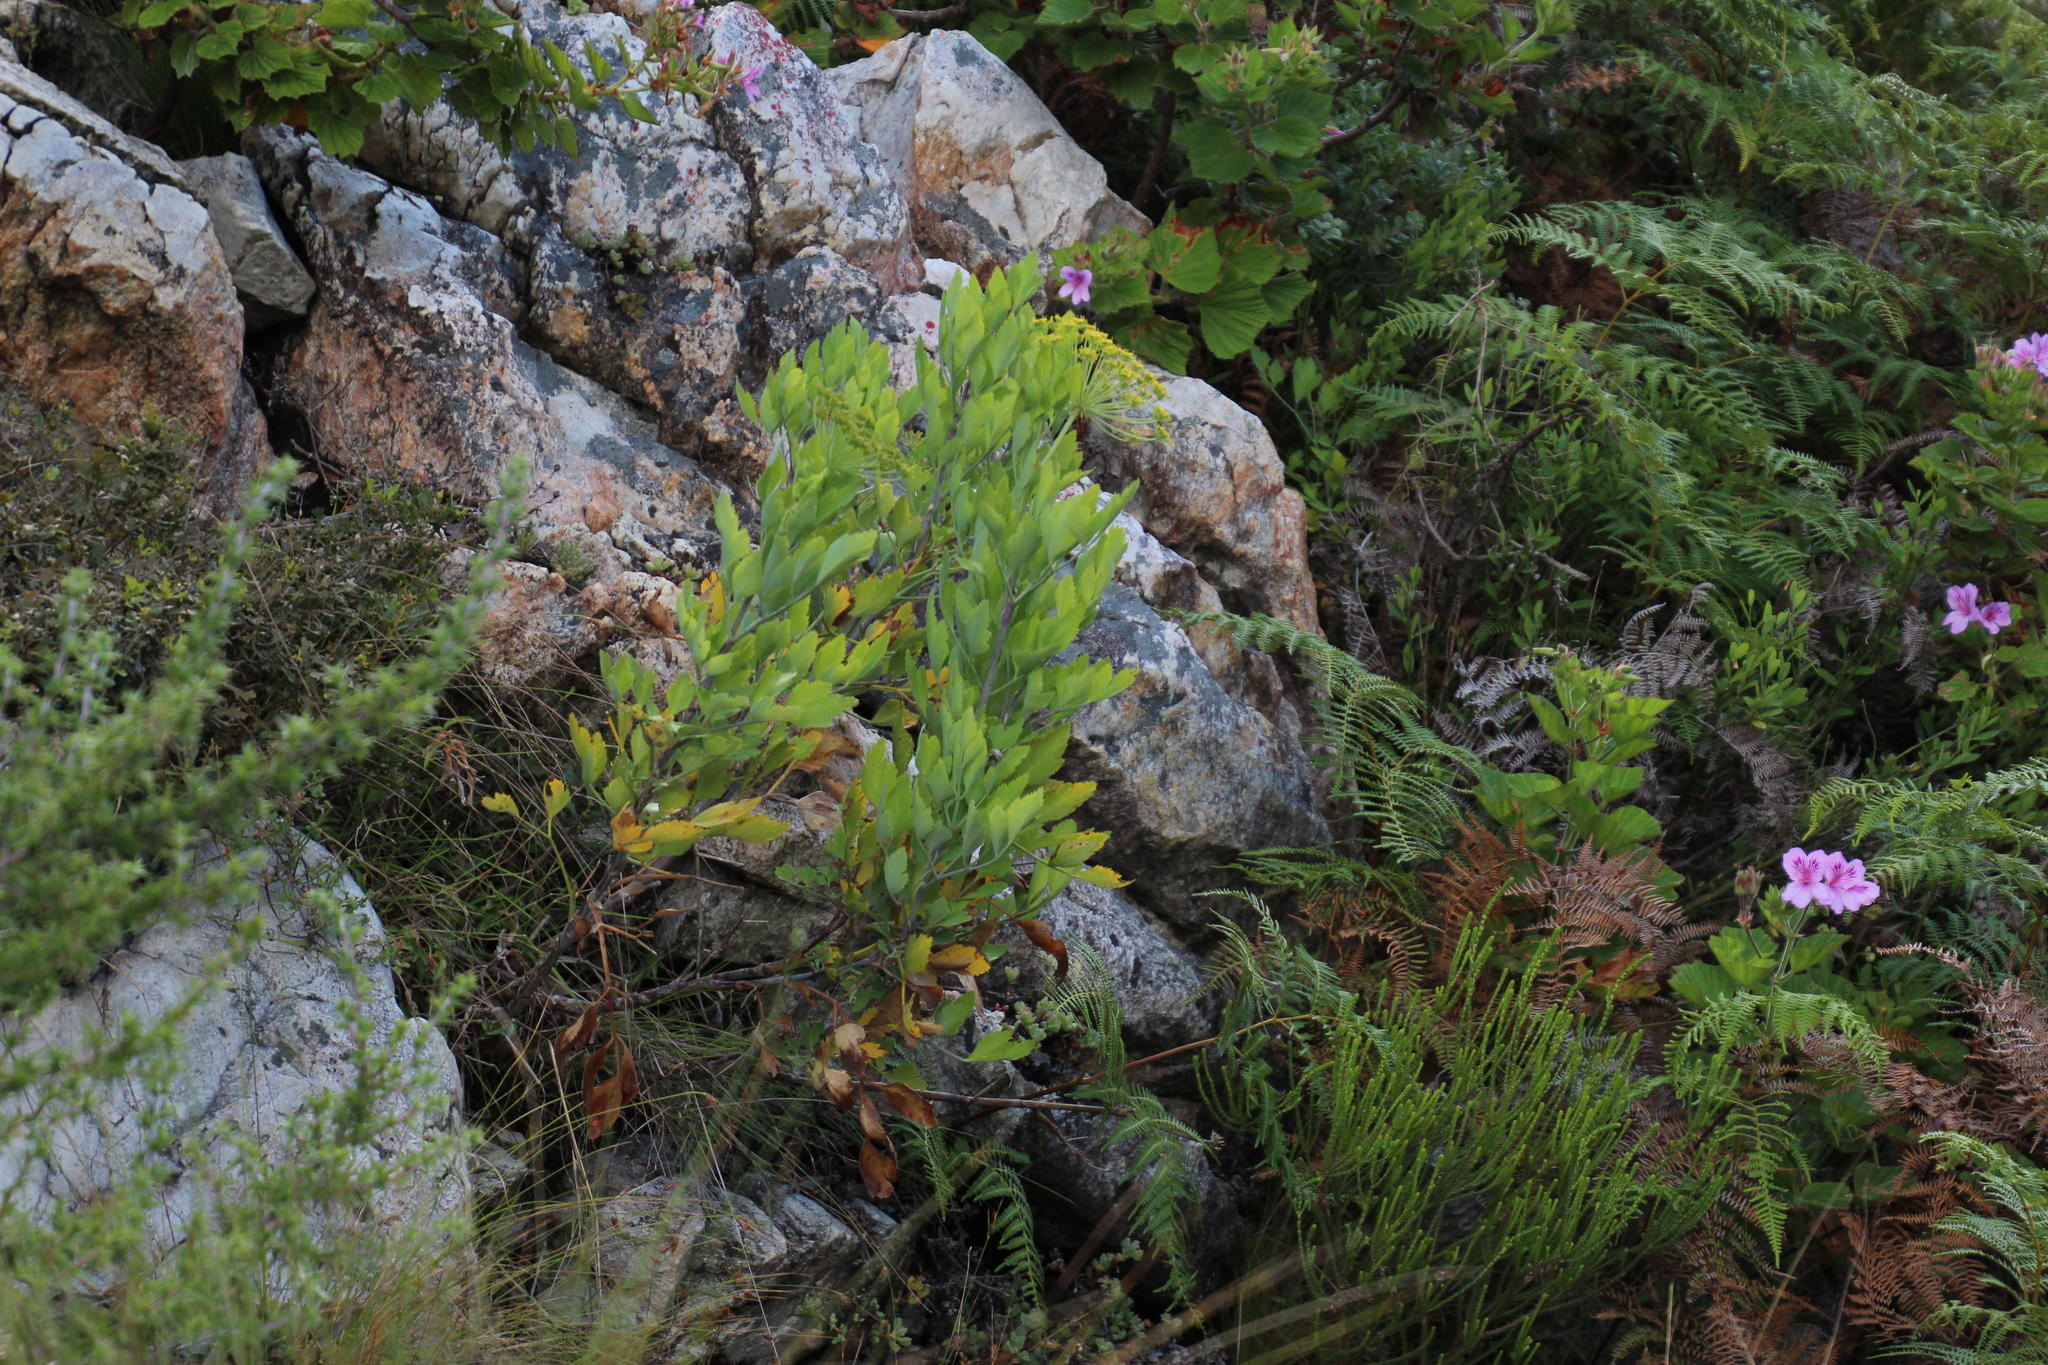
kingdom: Plantae
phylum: Tracheophyta
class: Magnoliopsida
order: Apiales
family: Apiaceae
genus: Notobubon
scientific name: Notobubon galbanum
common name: Blisterbush
